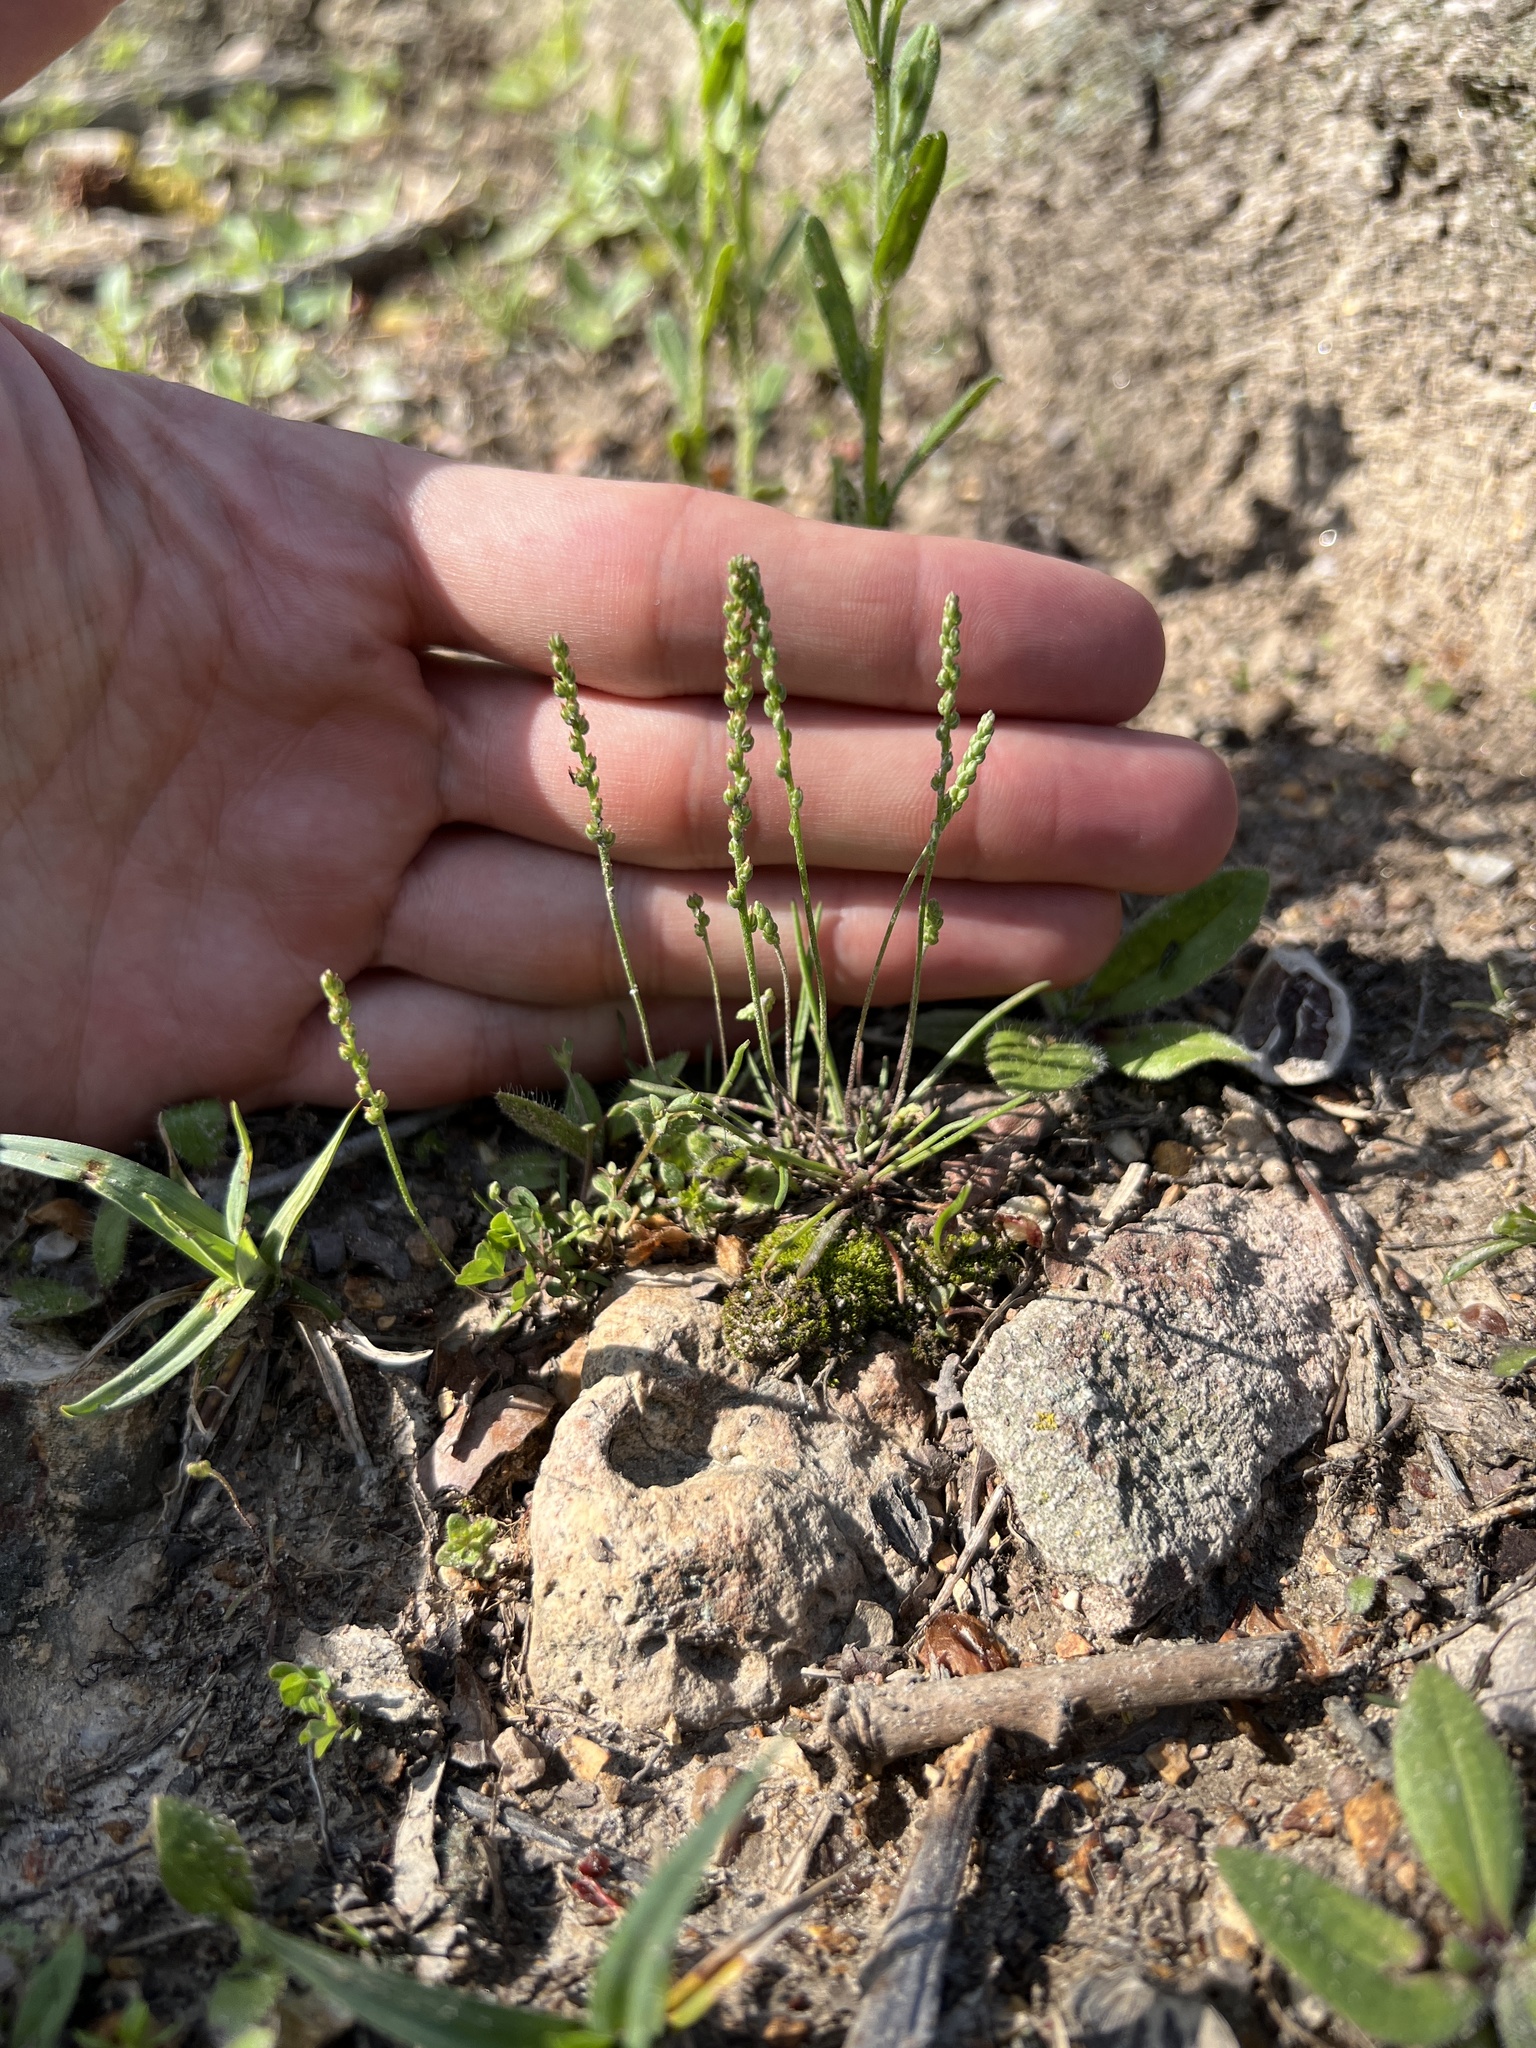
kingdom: Plantae
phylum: Tracheophyta
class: Magnoliopsida
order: Lamiales
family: Plantaginaceae
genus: Plantago
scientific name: Plantago elongata
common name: Linear-leaved plantain
